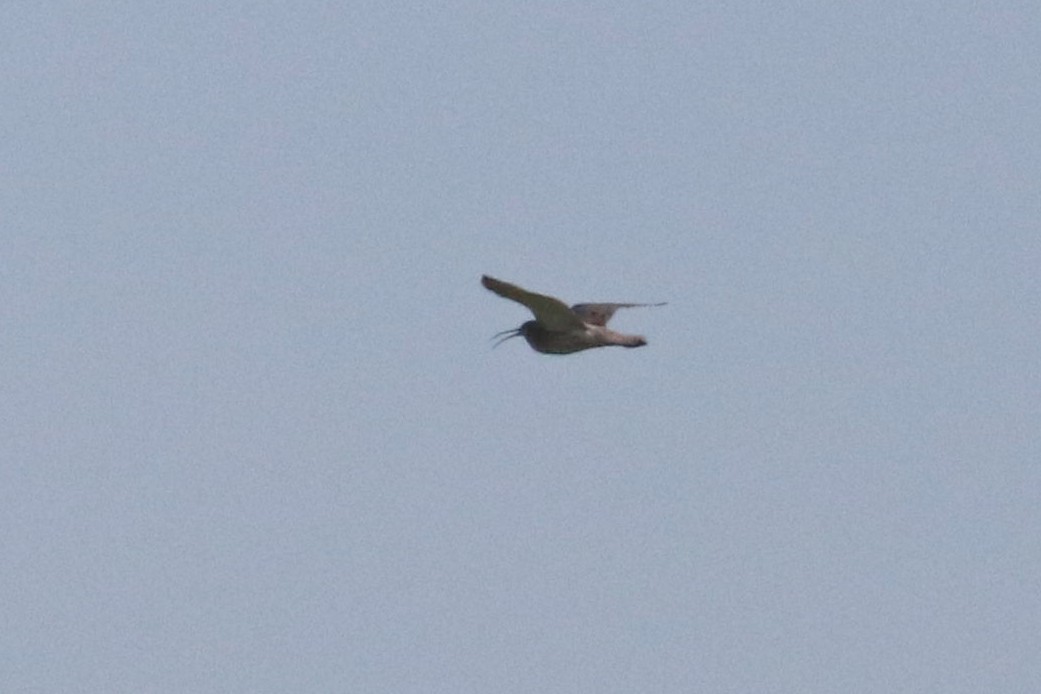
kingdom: Animalia
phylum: Chordata
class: Aves
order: Charadriiformes
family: Scolopacidae
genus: Numenius
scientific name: Numenius arquata
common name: Eurasian curlew
